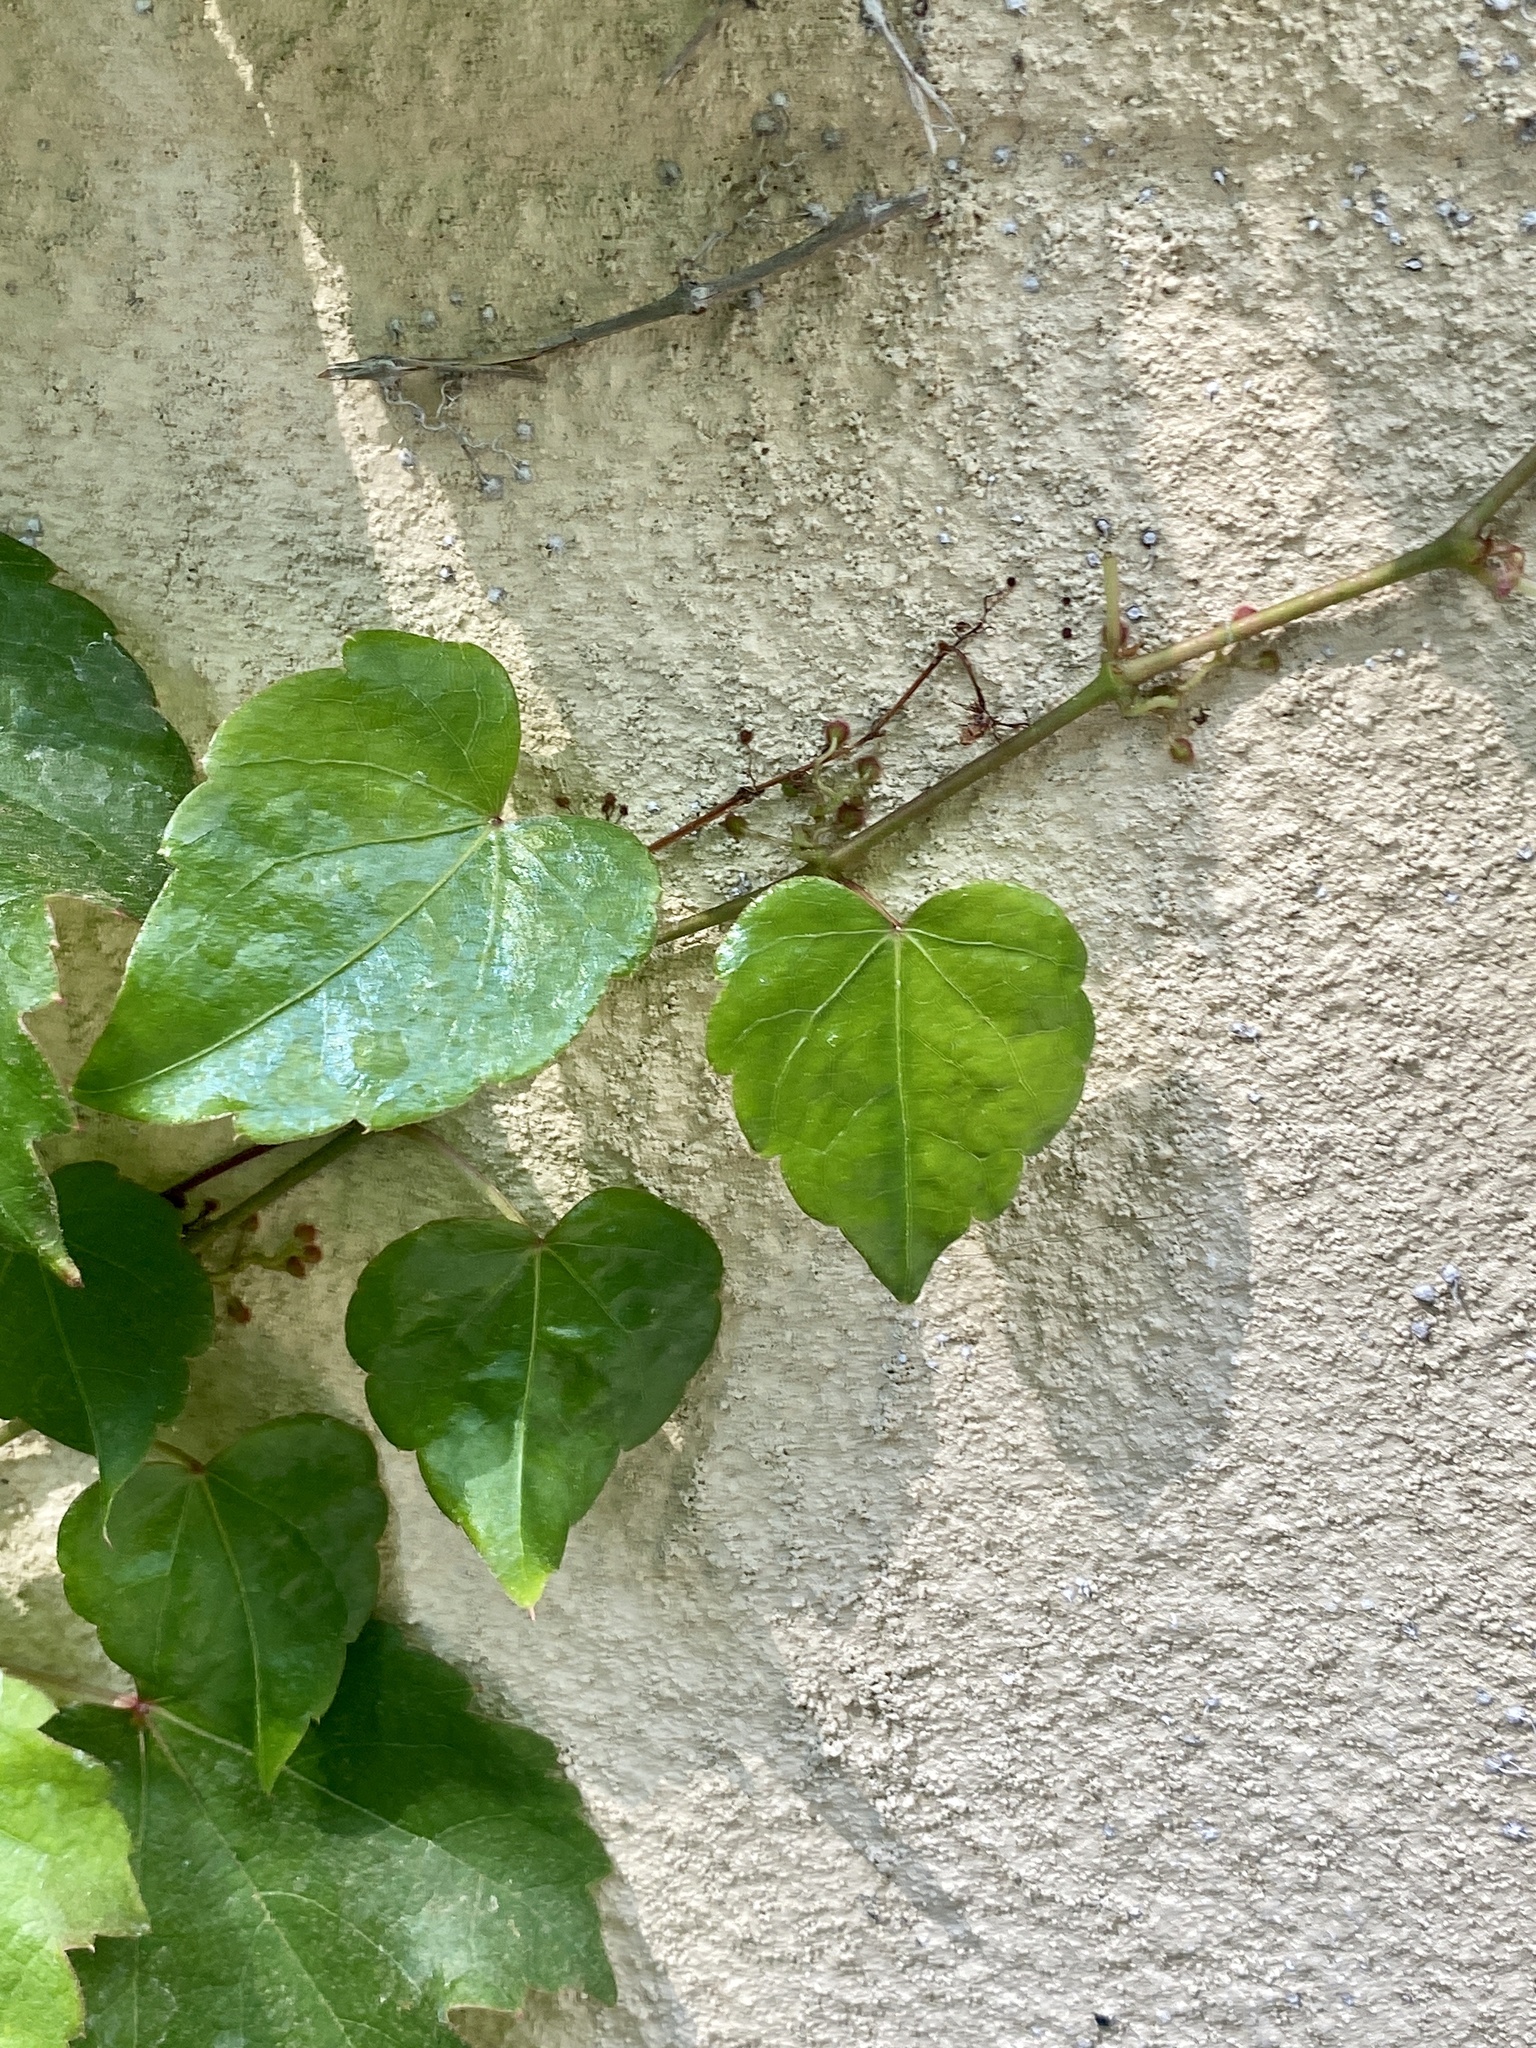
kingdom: Plantae
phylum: Tracheophyta
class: Magnoliopsida
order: Vitales
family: Vitaceae
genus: Parthenocissus
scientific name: Parthenocissus tricuspidata
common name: Boston ivy
